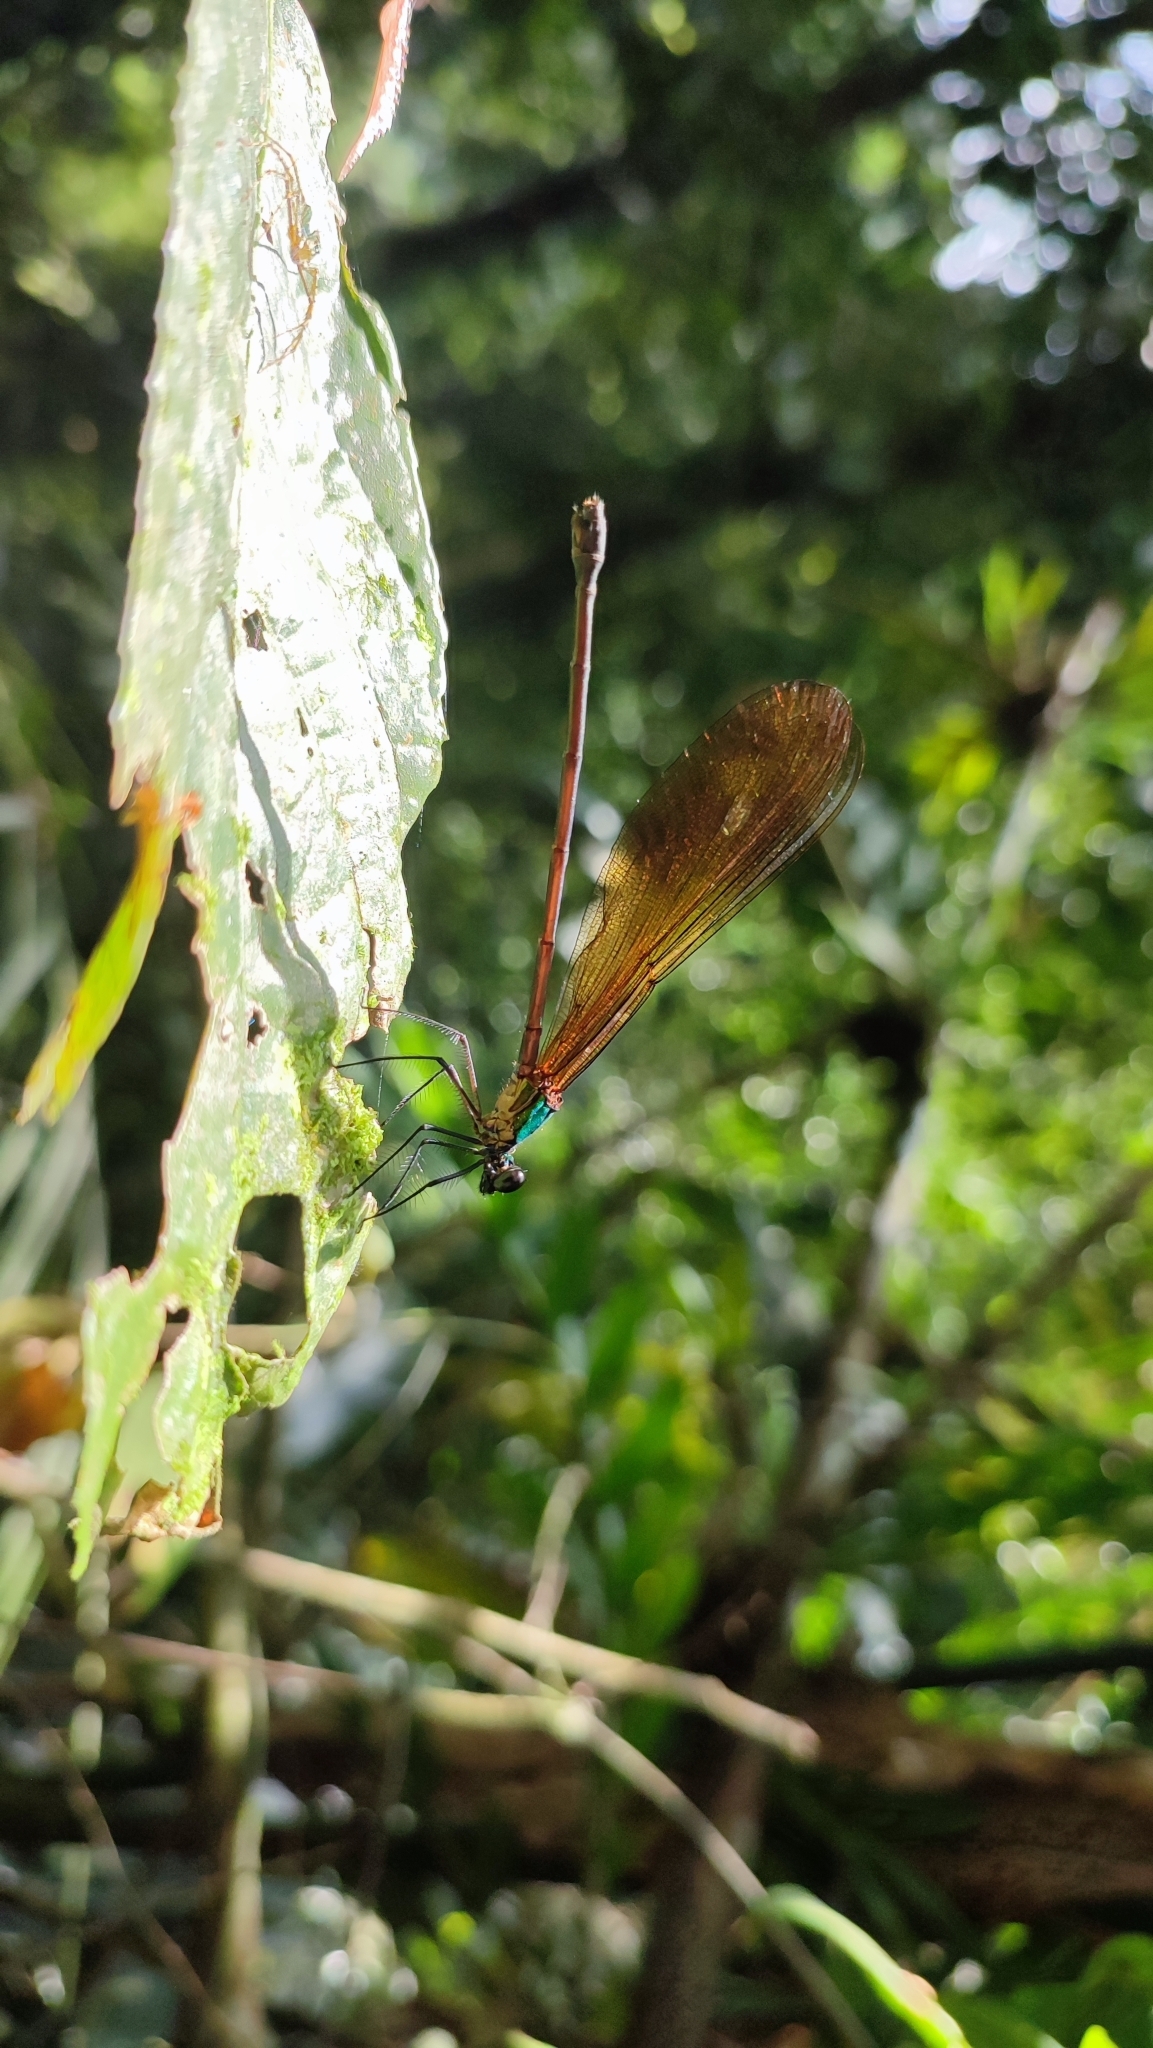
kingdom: Animalia
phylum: Arthropoda
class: Insecta
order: Odonata
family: Calopterygidae
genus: Vestalis
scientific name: Vestalis luctuosa
